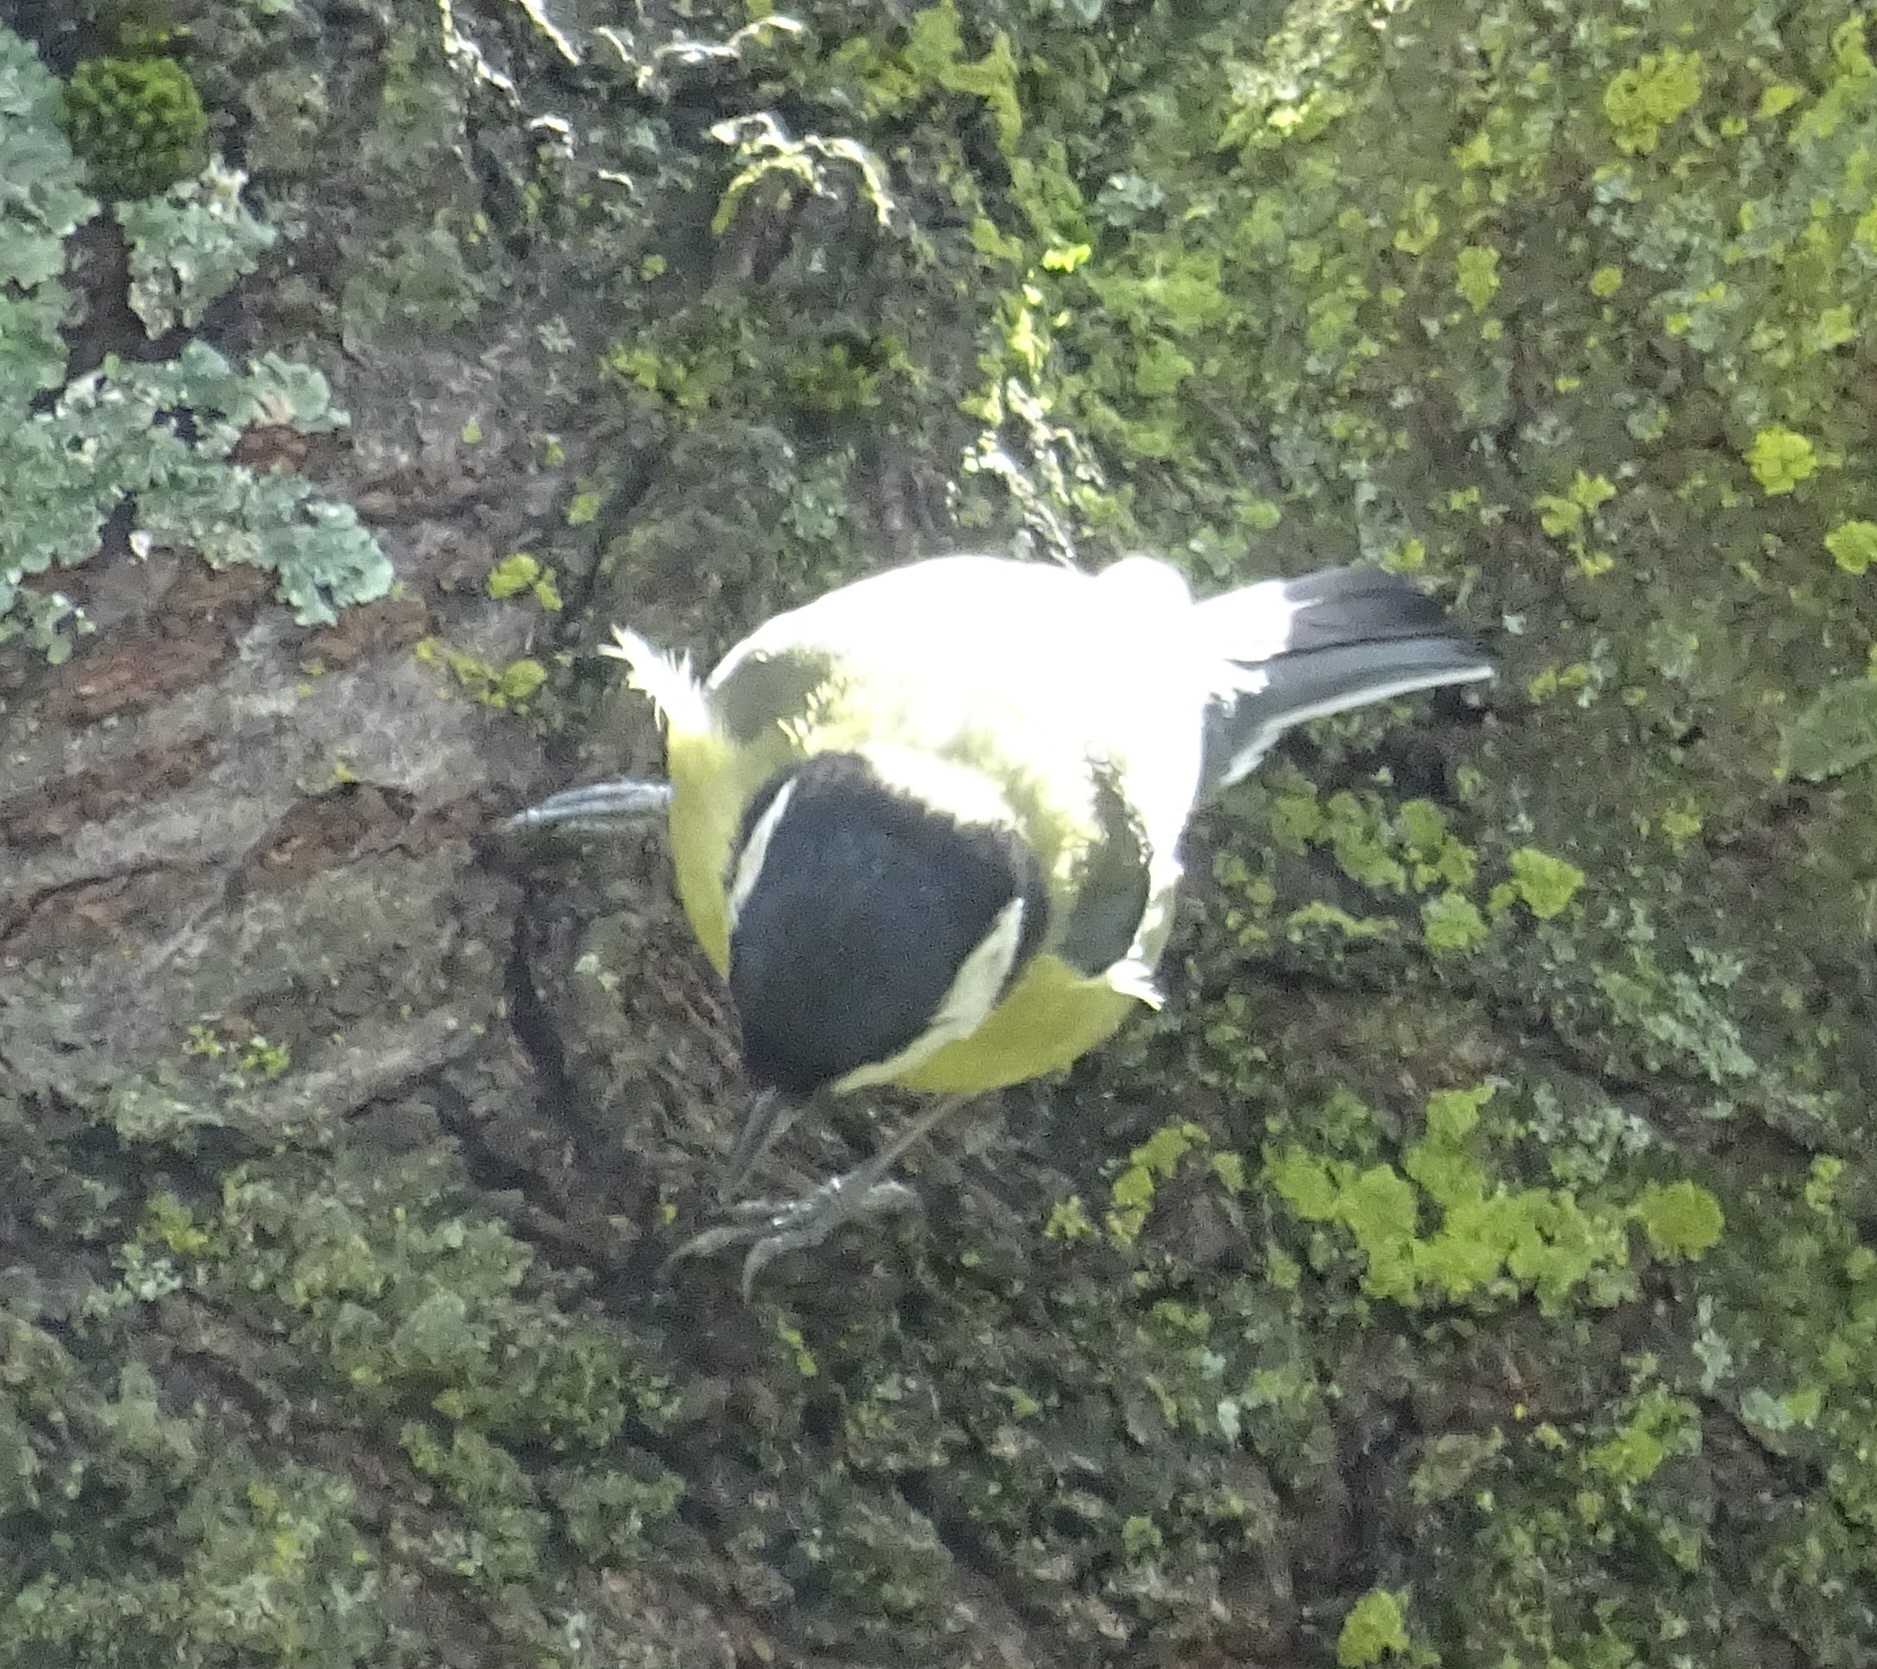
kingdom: Animalia
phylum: Chordata
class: Aves
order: Passeriformes
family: Paridae
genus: Parus
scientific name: Parus major
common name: Great tit
